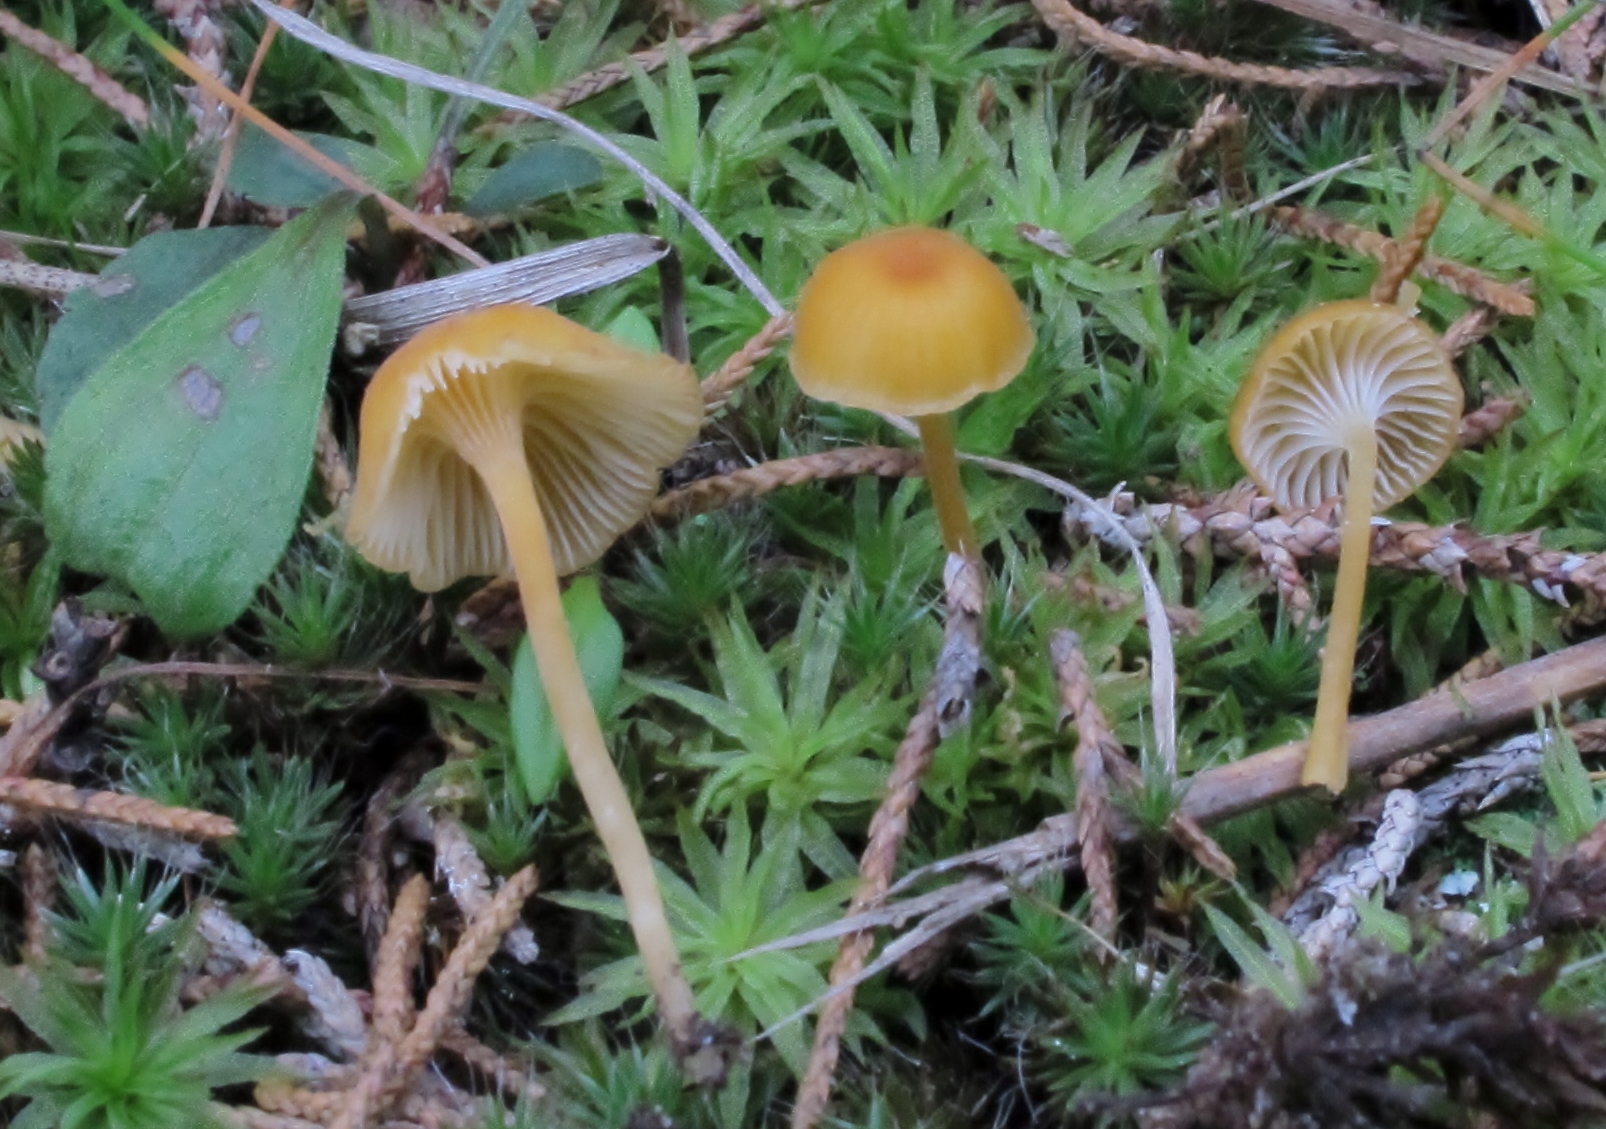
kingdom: Fungi
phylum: Basidiomycota
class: Agaricomycetes
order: Hymenochaetales
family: Rickenellaceae
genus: Rickenella
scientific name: Rickenella fibula
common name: Orange mosscap
